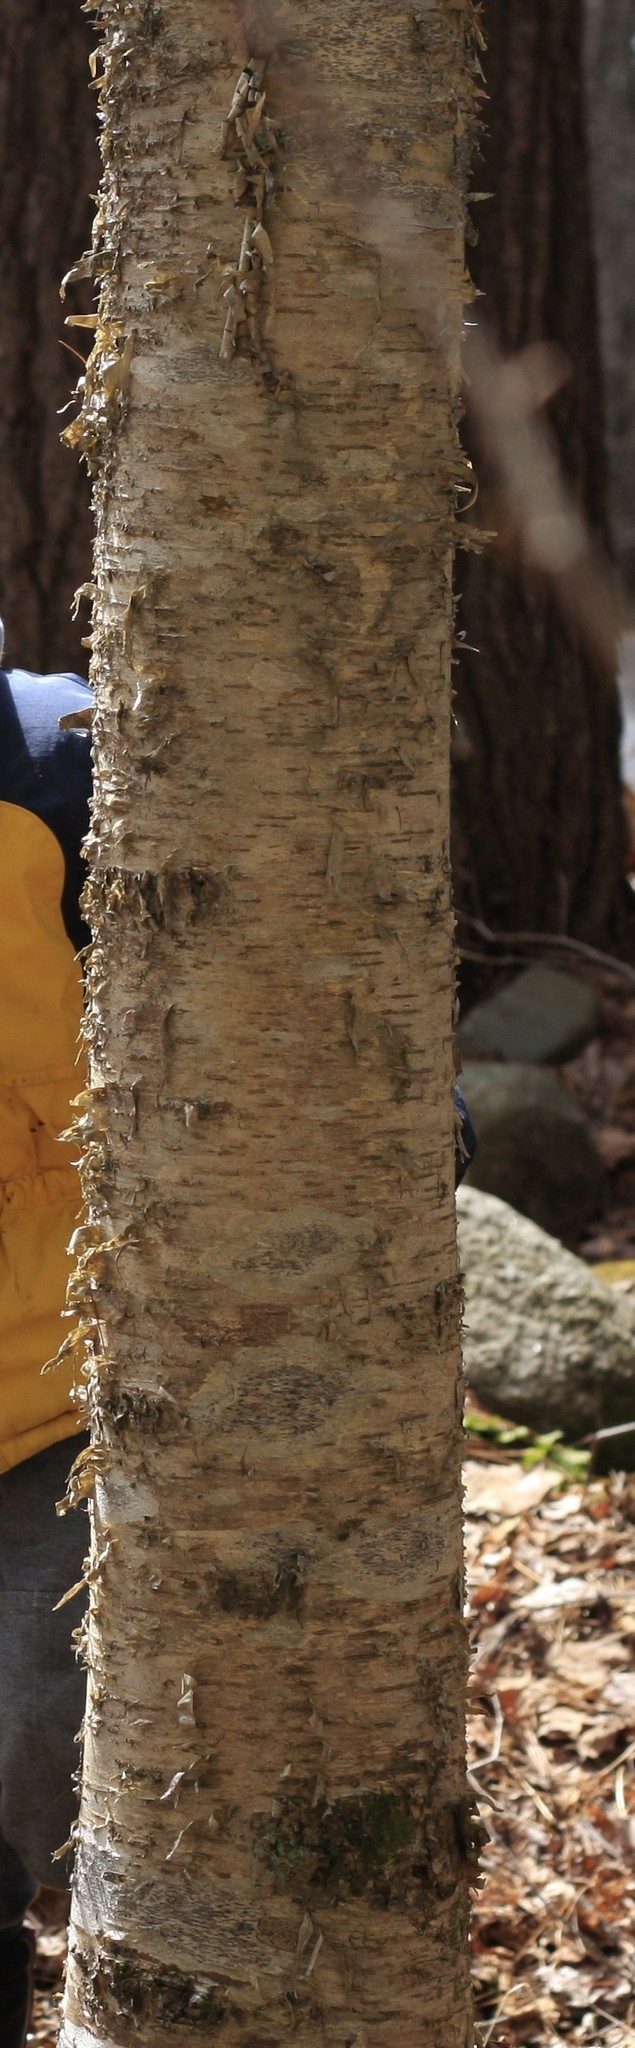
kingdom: Plantae
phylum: Tracheophyta
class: Magnoliopsida
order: Fagales
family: Betulaceae
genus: Betula
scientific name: Betula alleghaniensis
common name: Yellow birch
